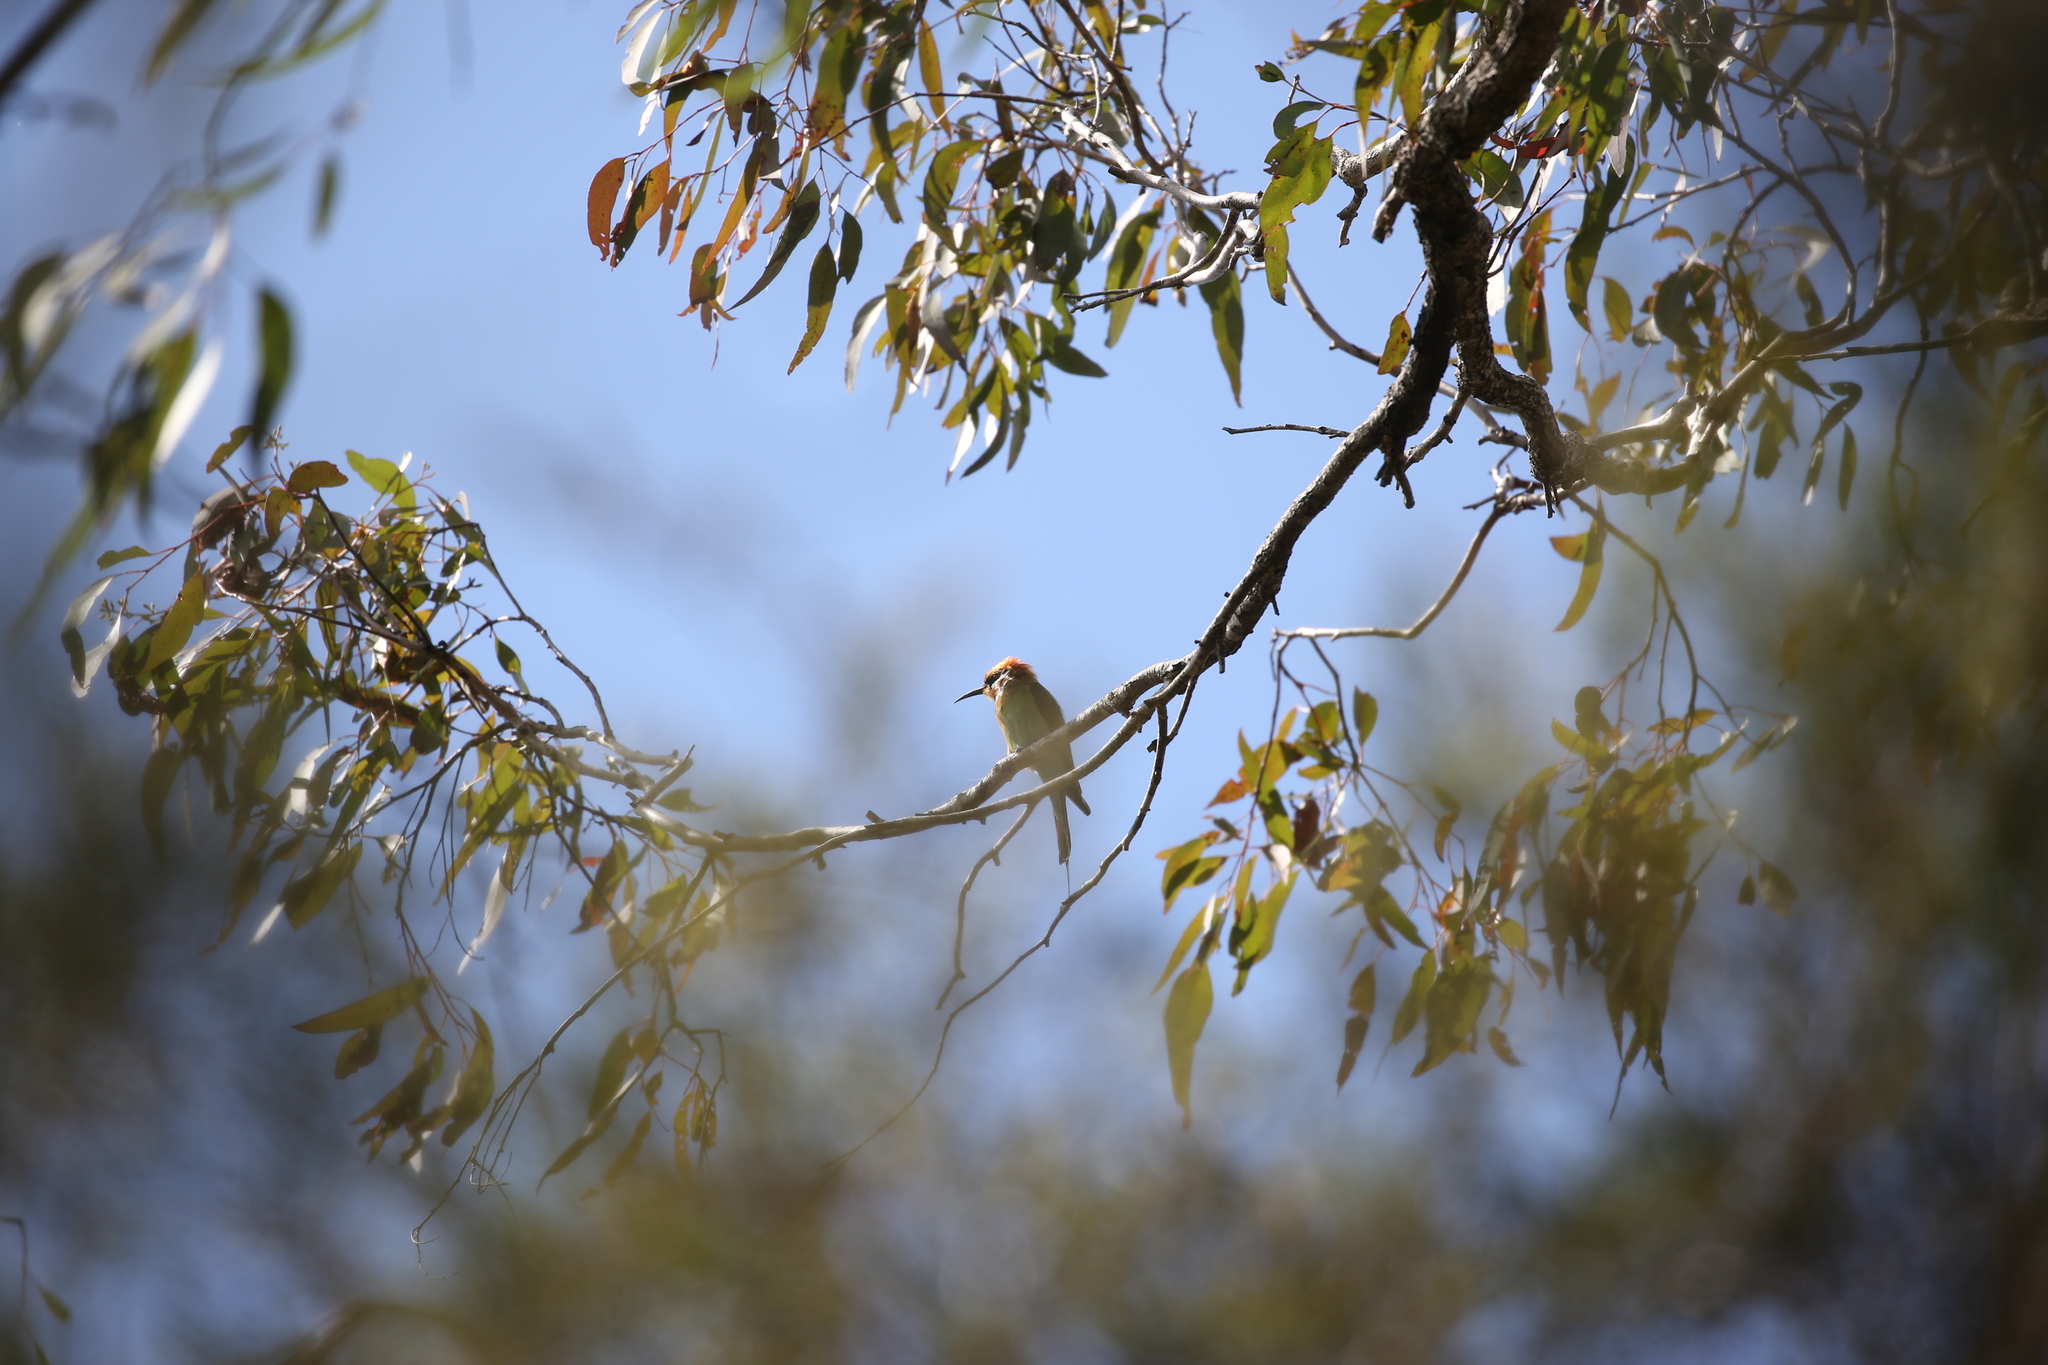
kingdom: Animalia
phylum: Chordata
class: Aves
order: Coraciiformes
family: Meropidae
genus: Merops
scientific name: Merops ornatus
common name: Rainbow bee-eater
